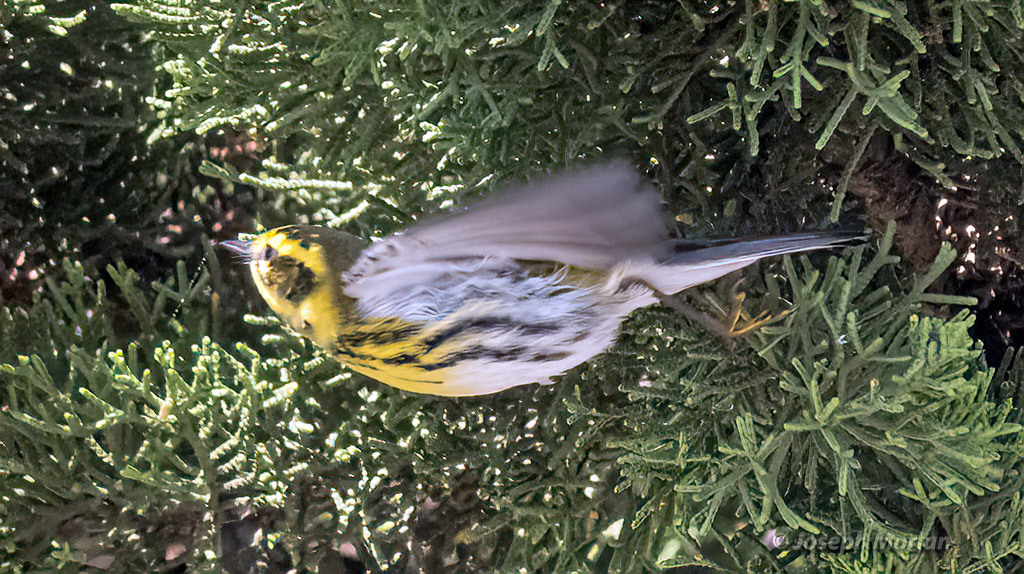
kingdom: Animalia
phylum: Chordata
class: Aves
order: Passeriformes
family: Parulidae
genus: Setophaga
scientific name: Setophaga townsendi
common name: Townsend's warbler
